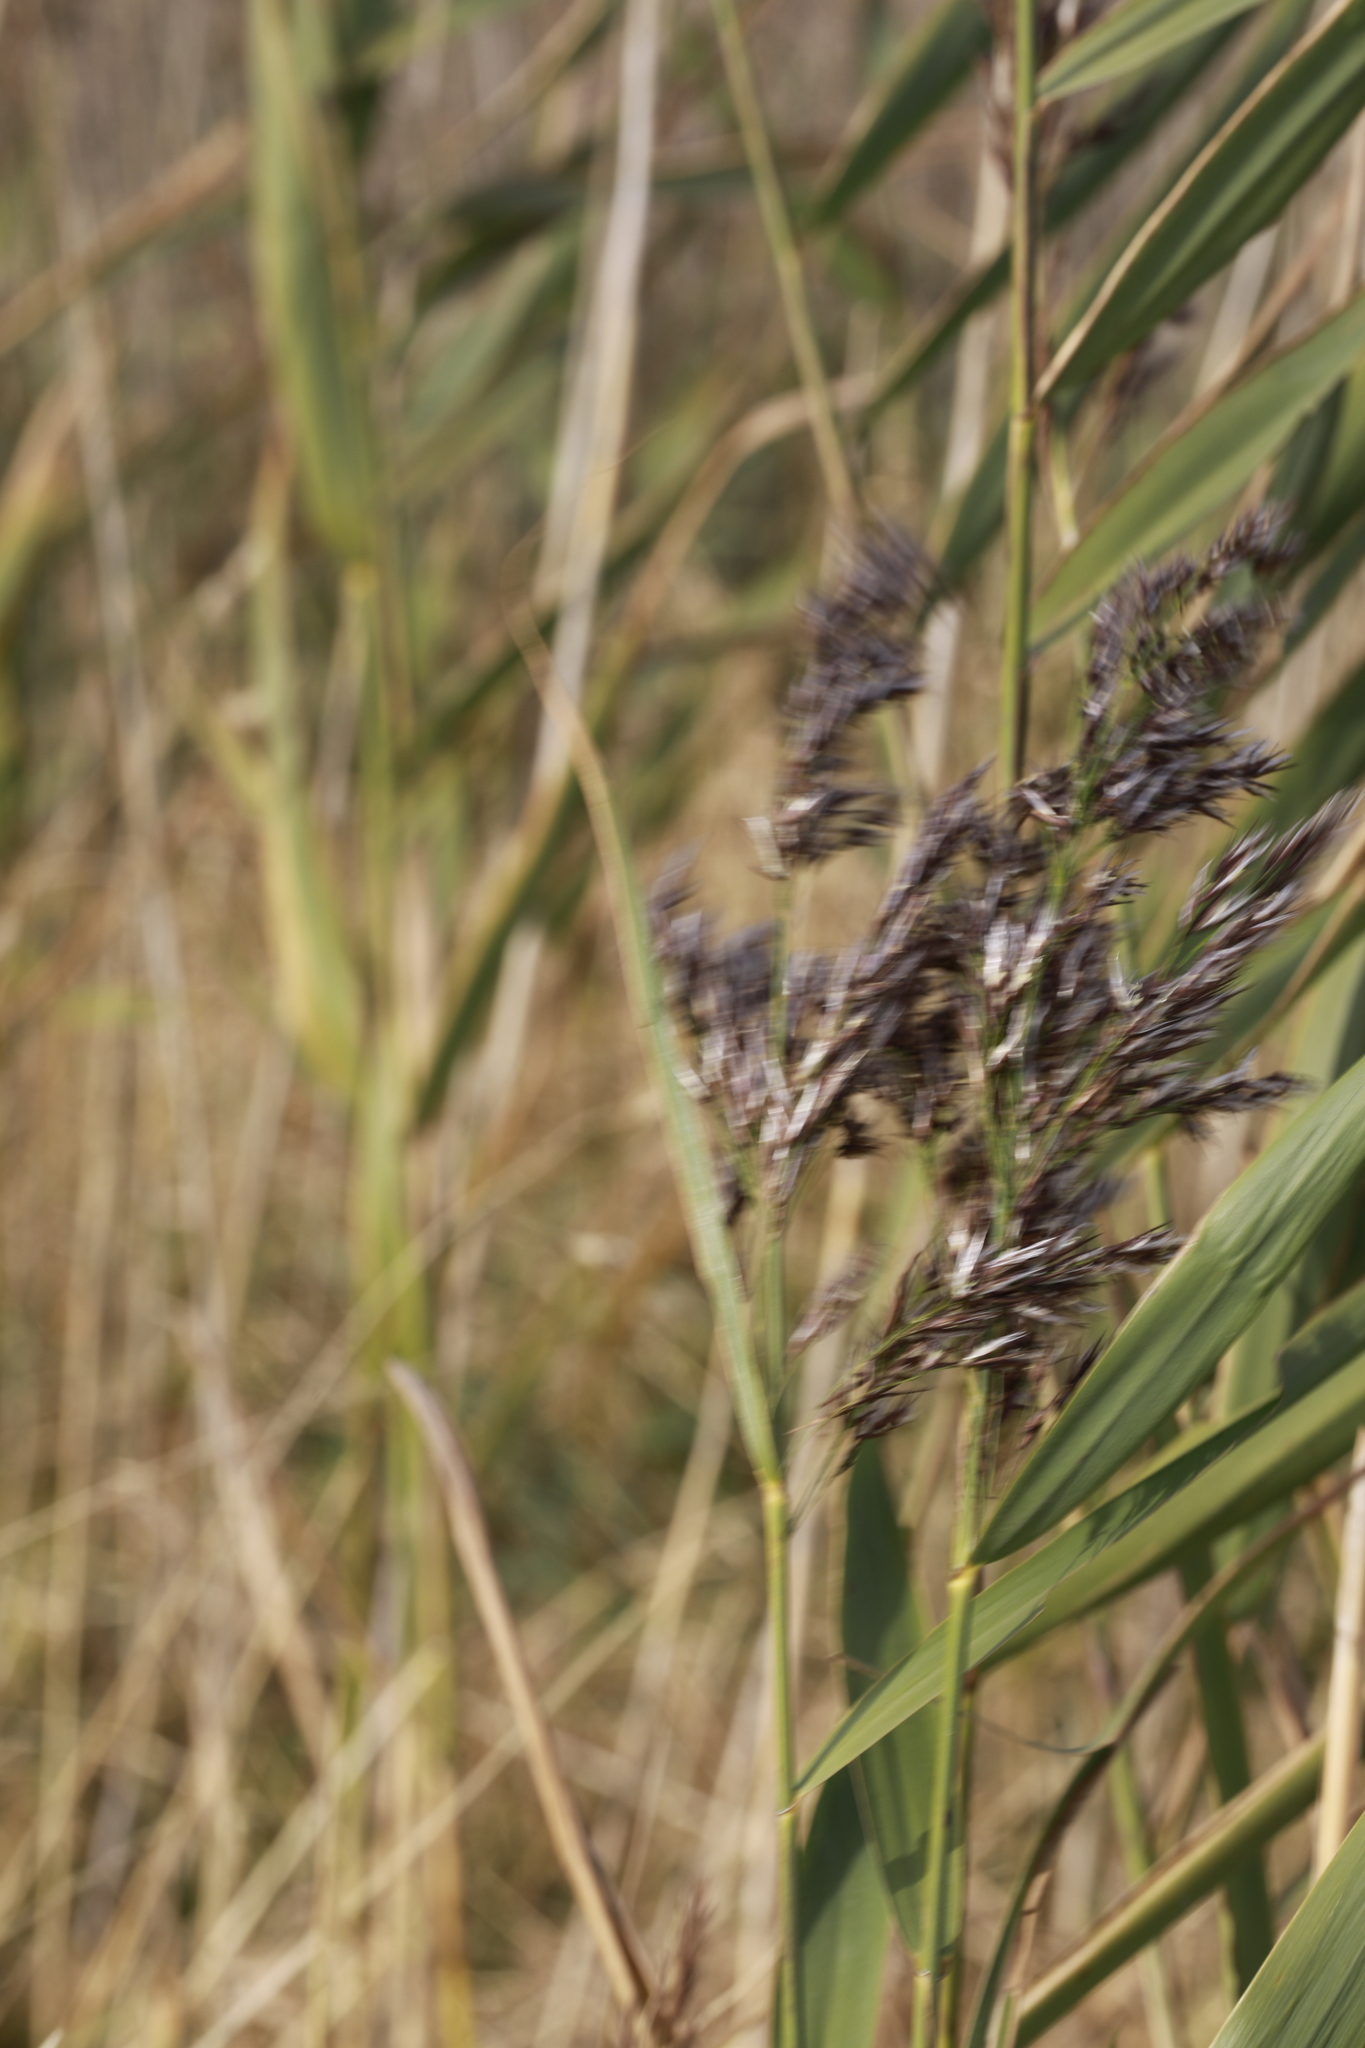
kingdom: Plantae
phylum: Tracheophyta
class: Liliopsida
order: Poales
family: Poaceae
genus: Phragmites
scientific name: Phragmites australis
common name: Common reed
